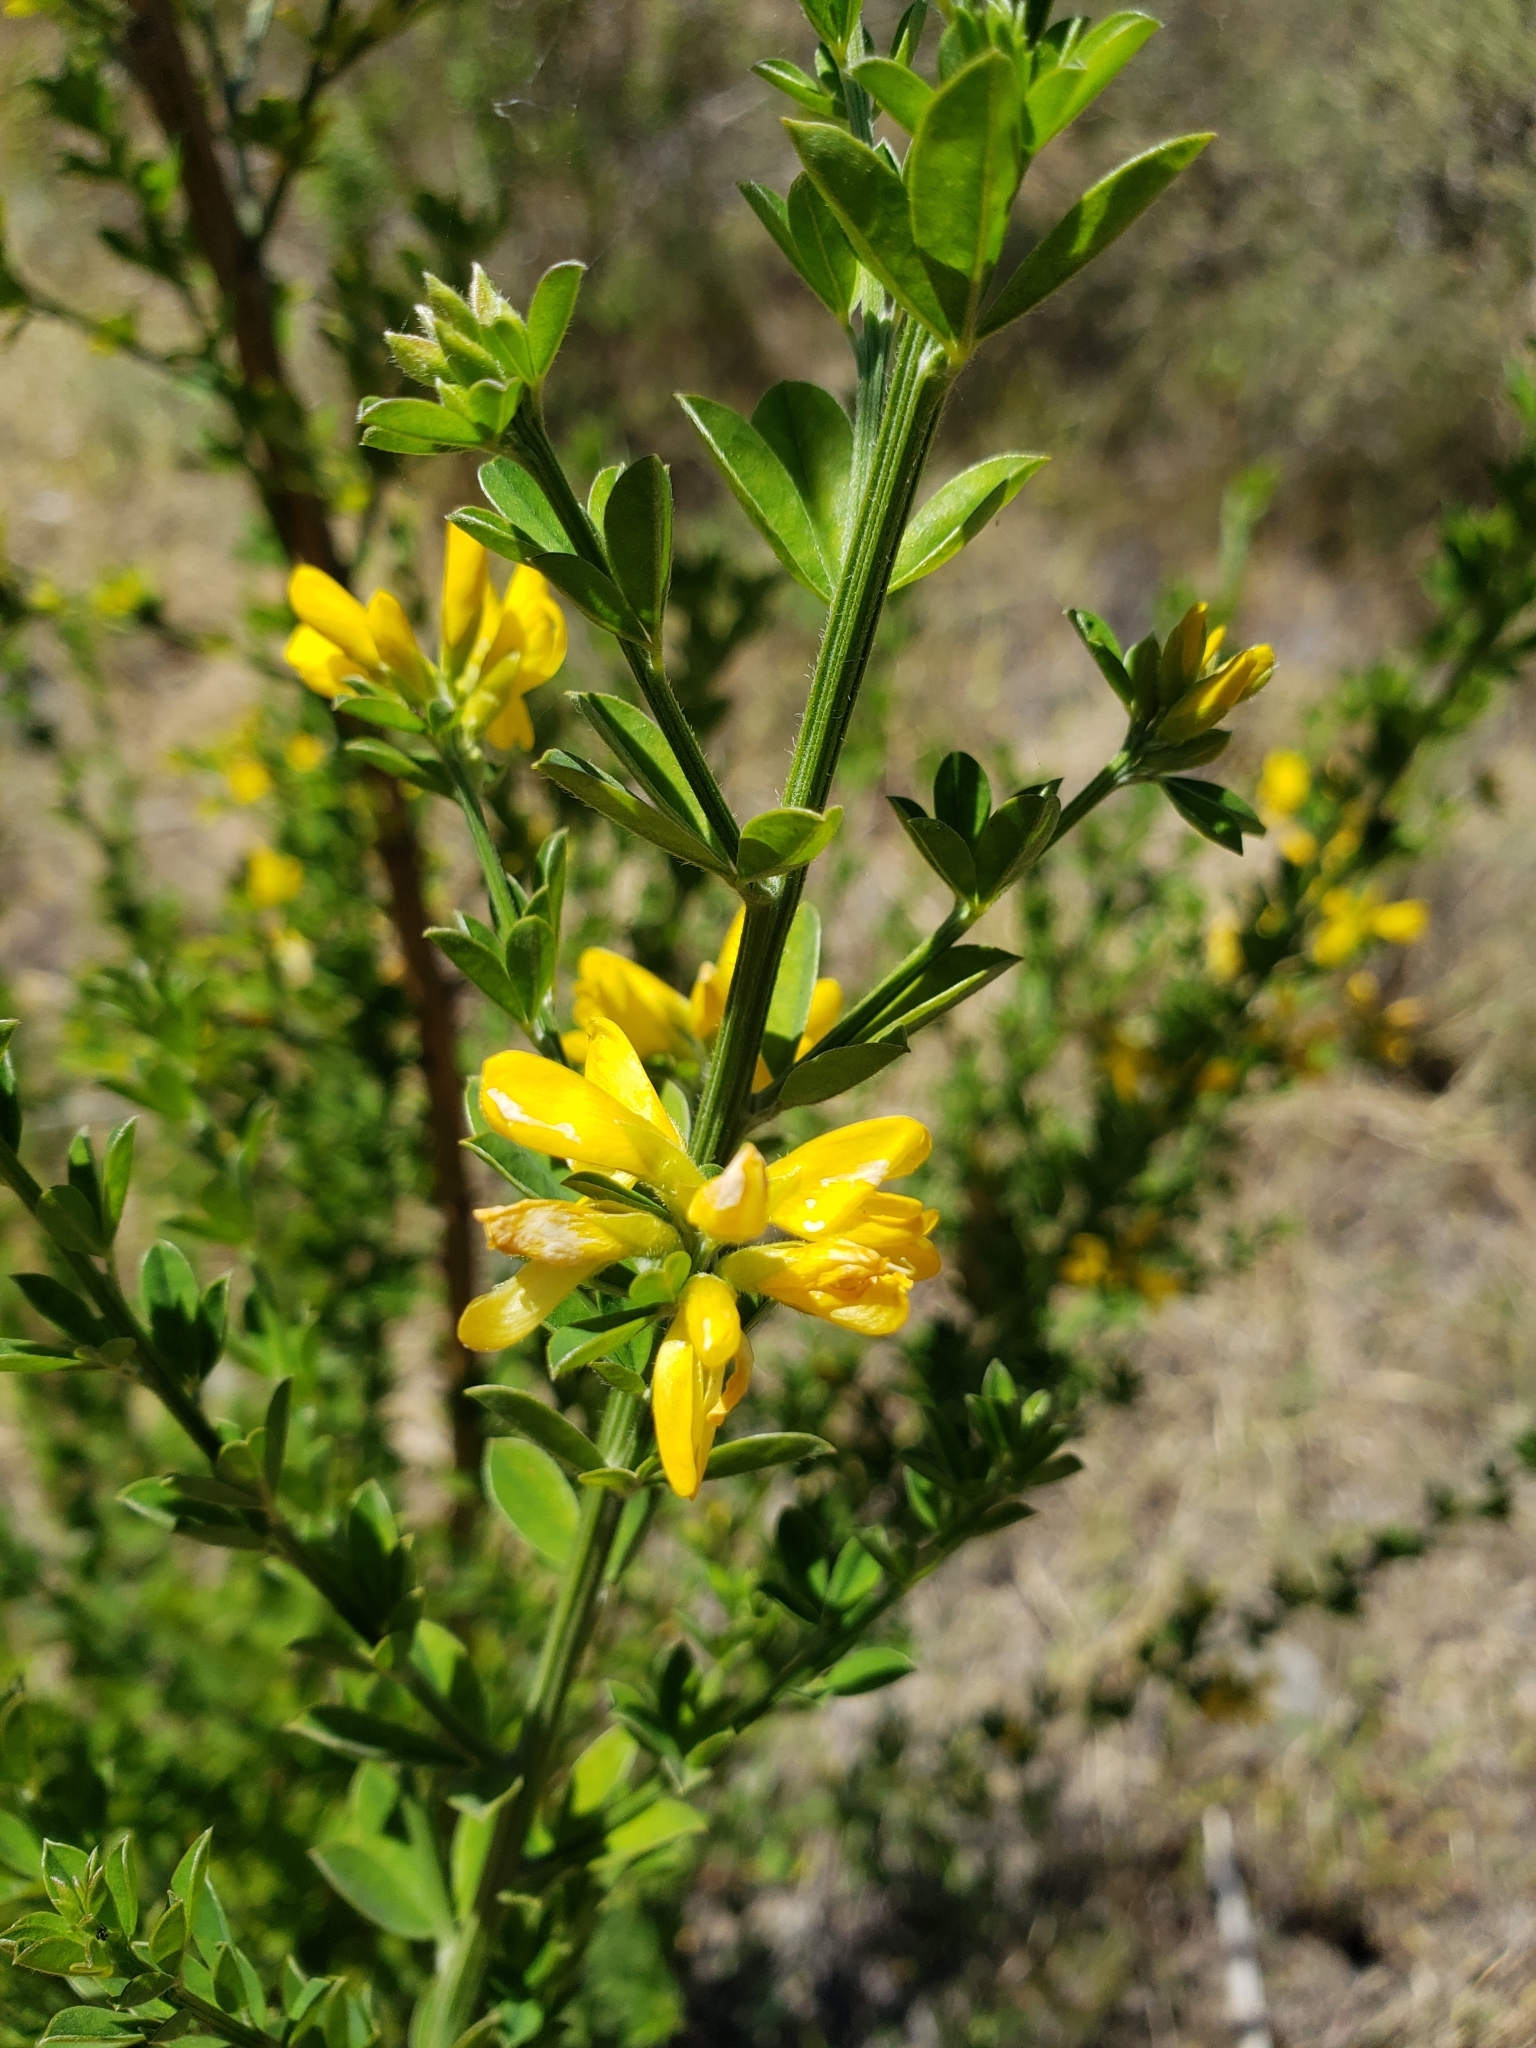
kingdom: Plantae
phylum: Tracheophyta
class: Magnoliopsida
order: Fabales
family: Fabaceae
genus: Genista
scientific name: Genista monspessulana
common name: Montpellier broom
